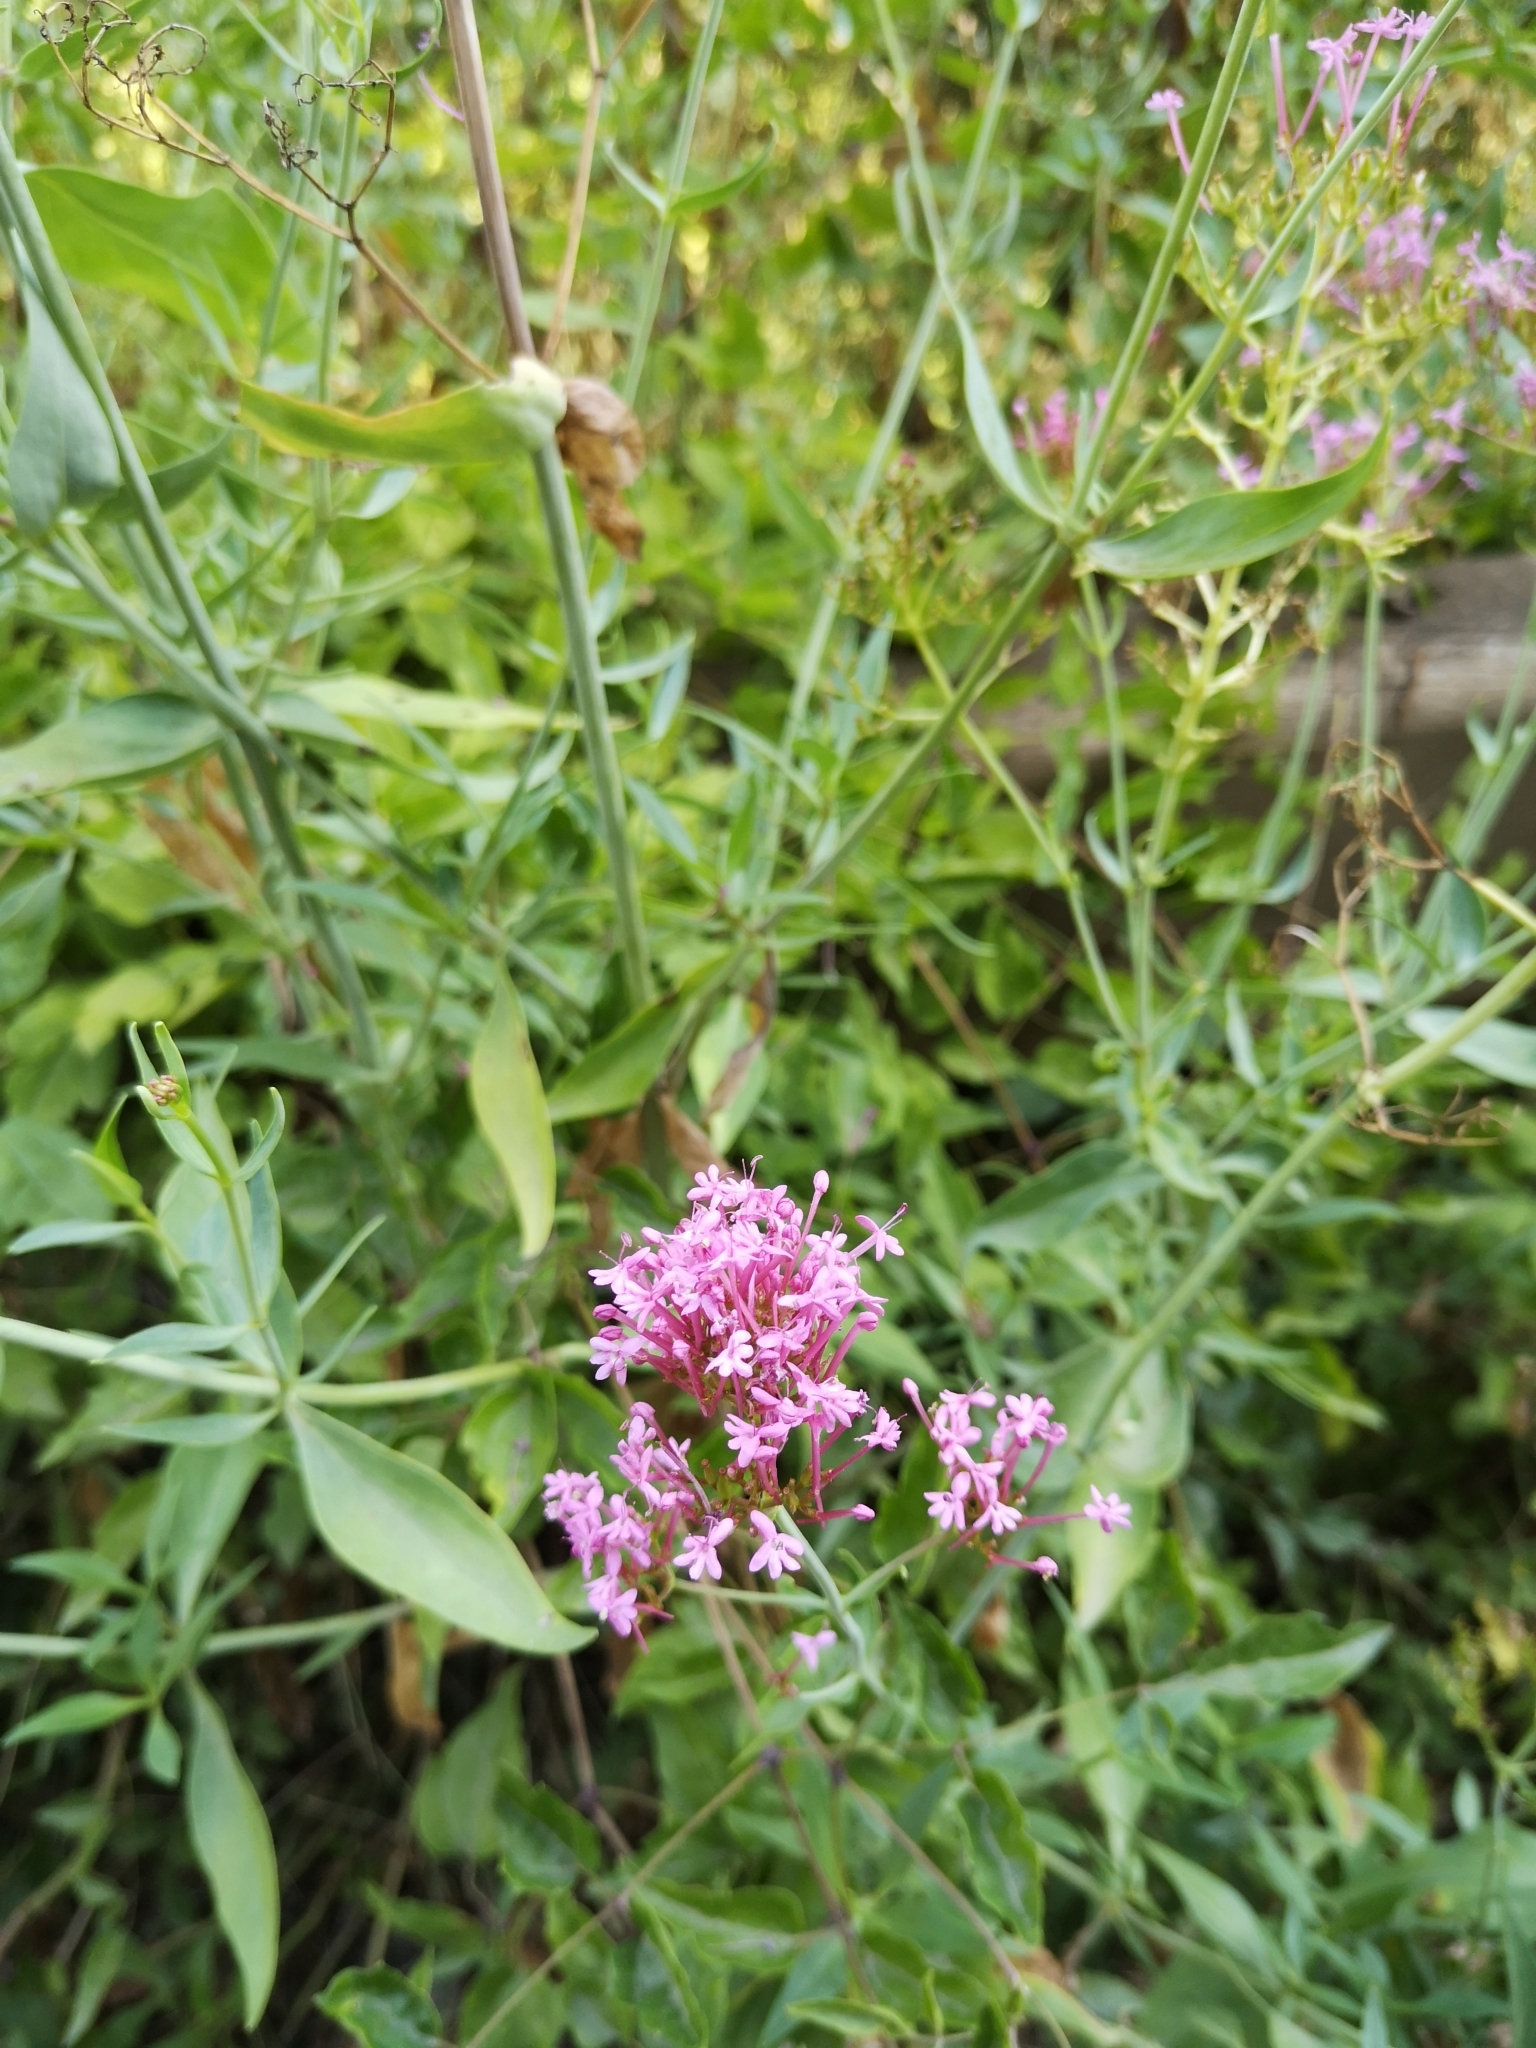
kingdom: Plantae
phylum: Tracheophyta
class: Magnoliopsida
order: Dipsacales
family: Caprifoliaceae
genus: Centranthus
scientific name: Centranthus ruber
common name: Red valerian
